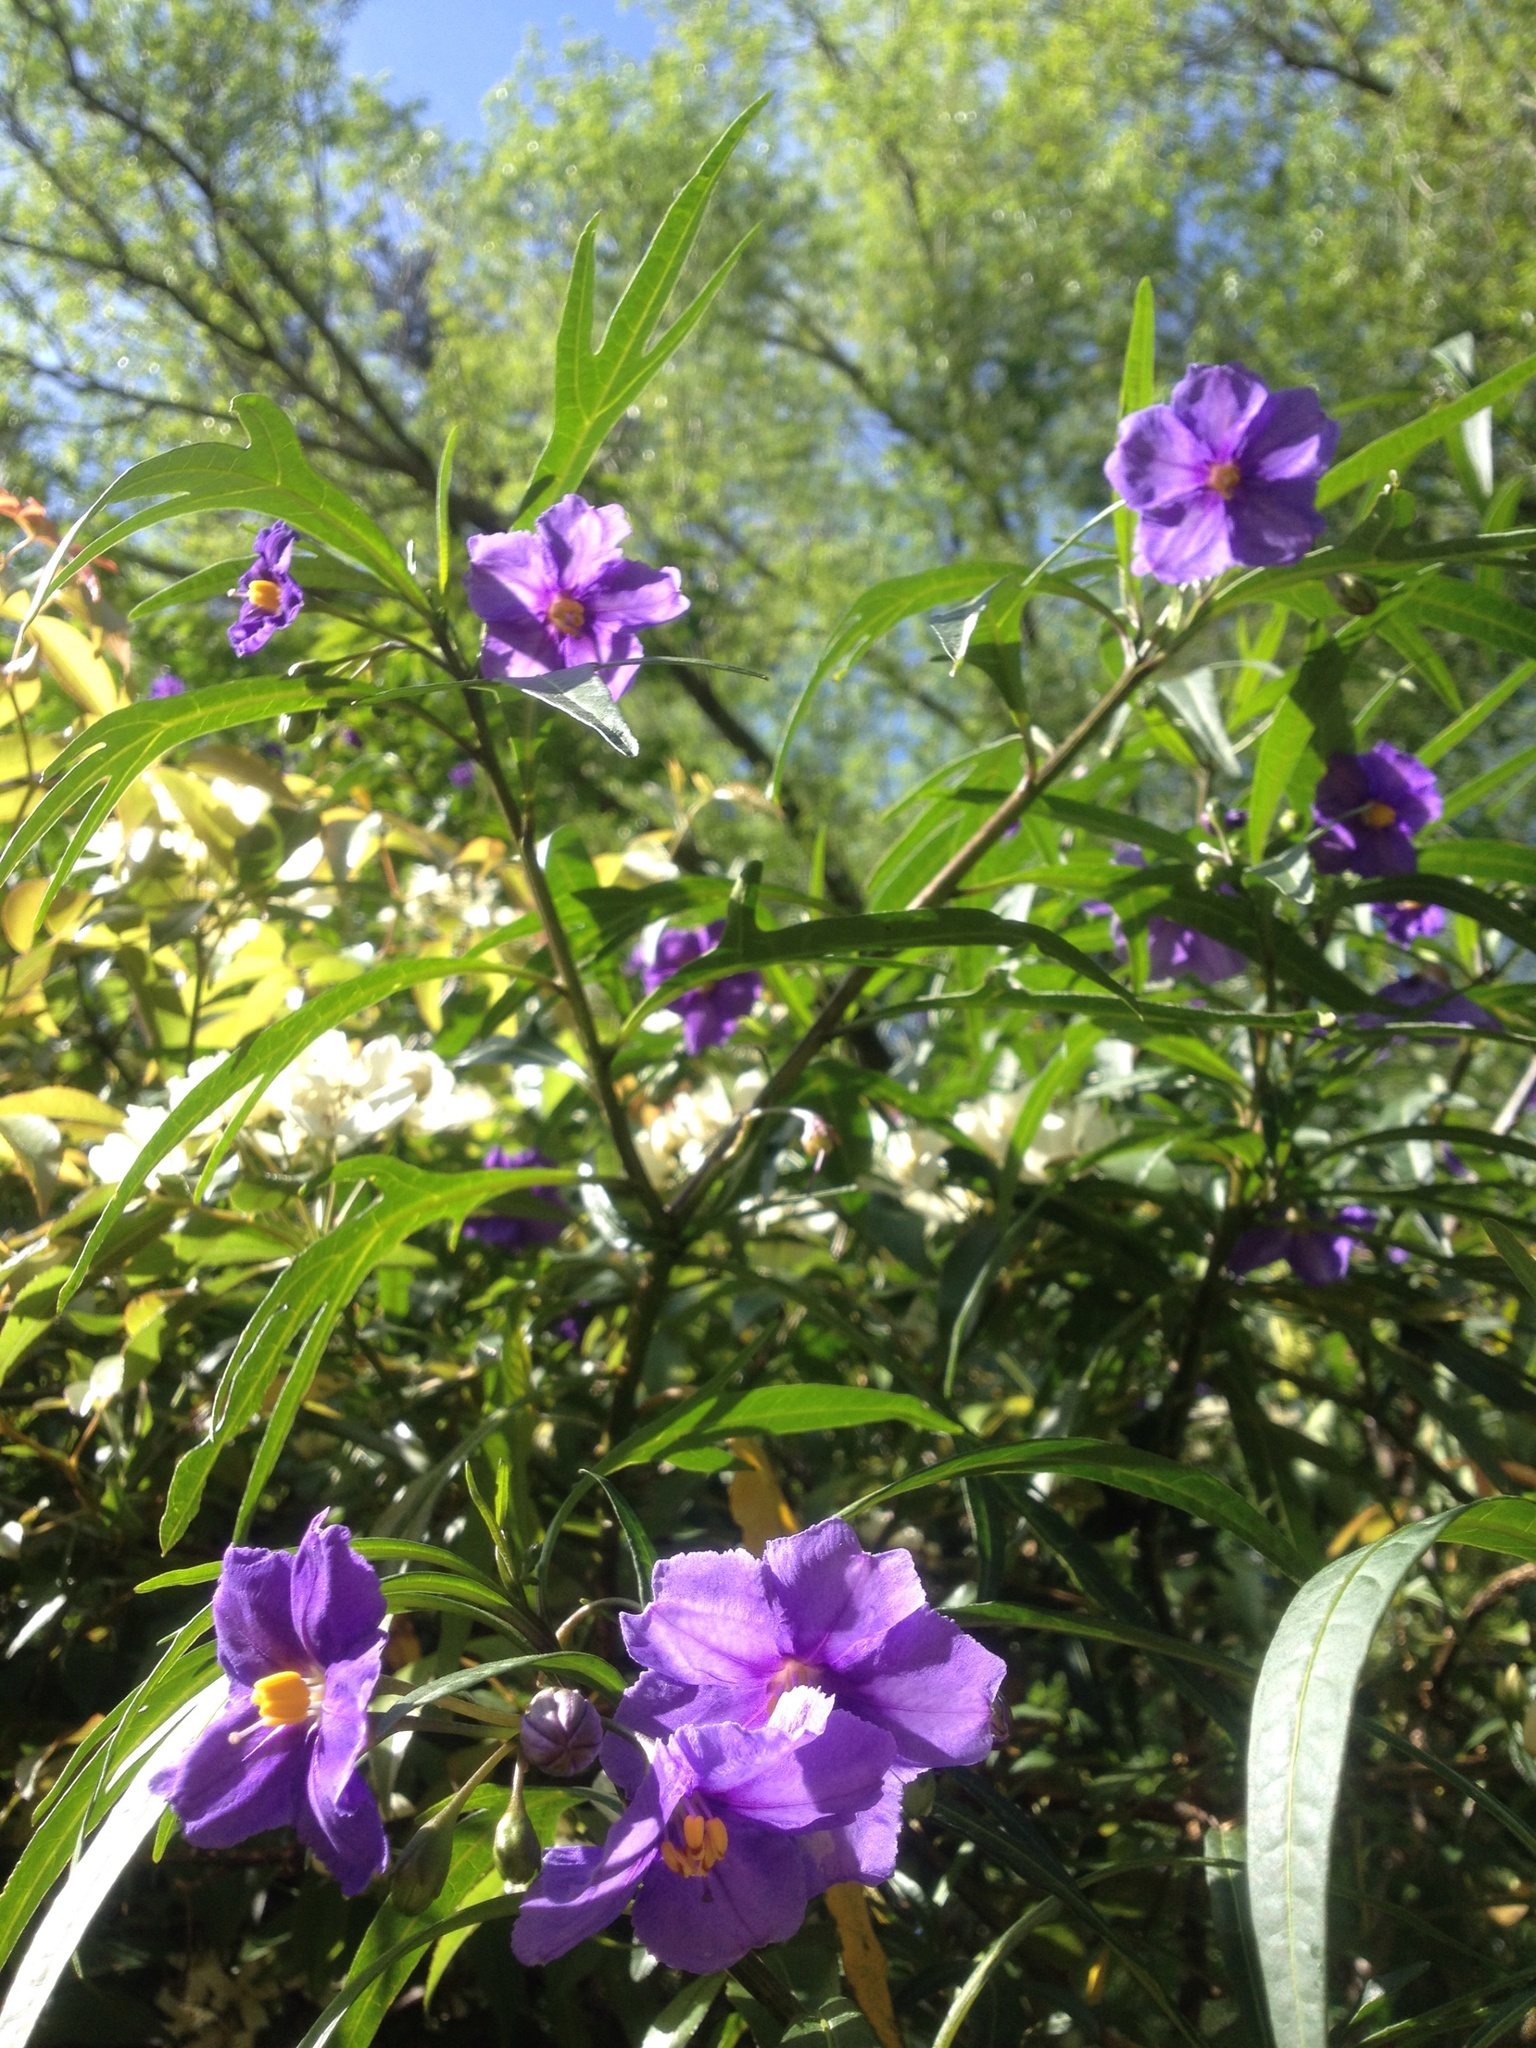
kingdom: Plantae
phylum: Tracheophyta
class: Magnoliopsida
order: Solanales
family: Solanaceae
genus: Solanum
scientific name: Solanum laciniatum
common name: Kangaroo-apple
